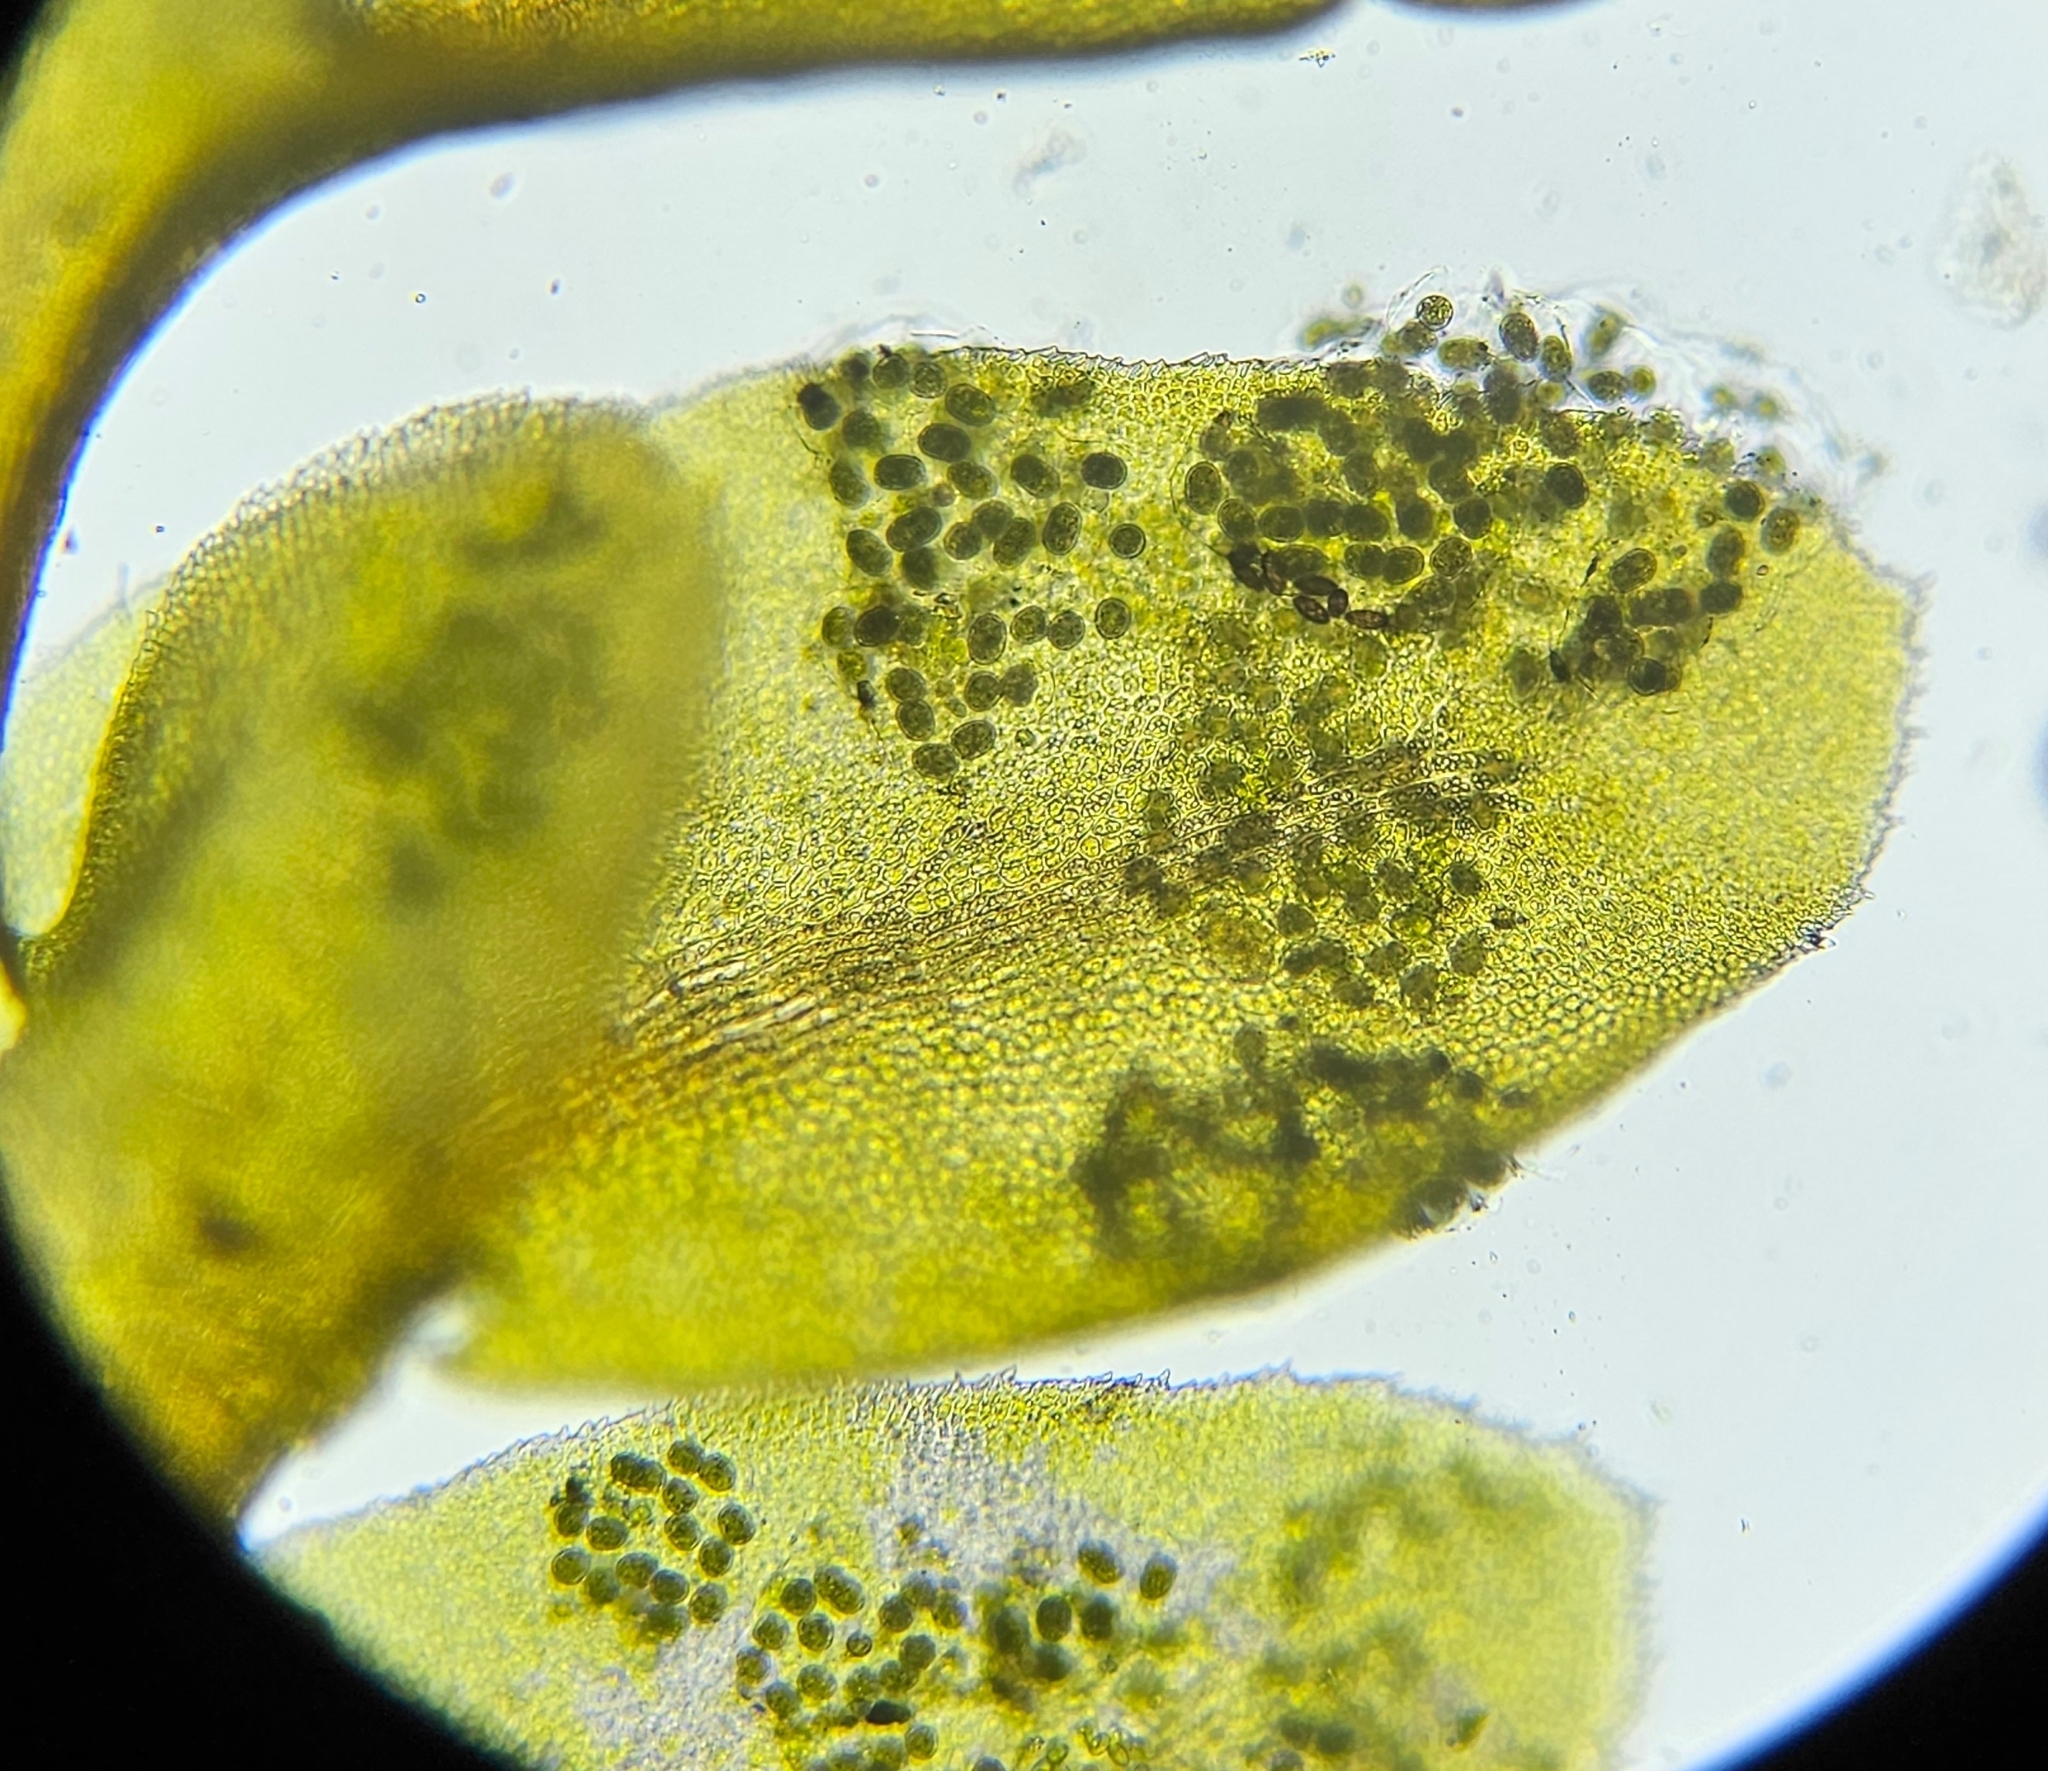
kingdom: Plantae
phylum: Marchantiophyta
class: Jungermanniopsida
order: Jungermanniales
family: Scapaniaceae
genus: Diplophyllum
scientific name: Diplophyllum albicans
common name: White earwort
